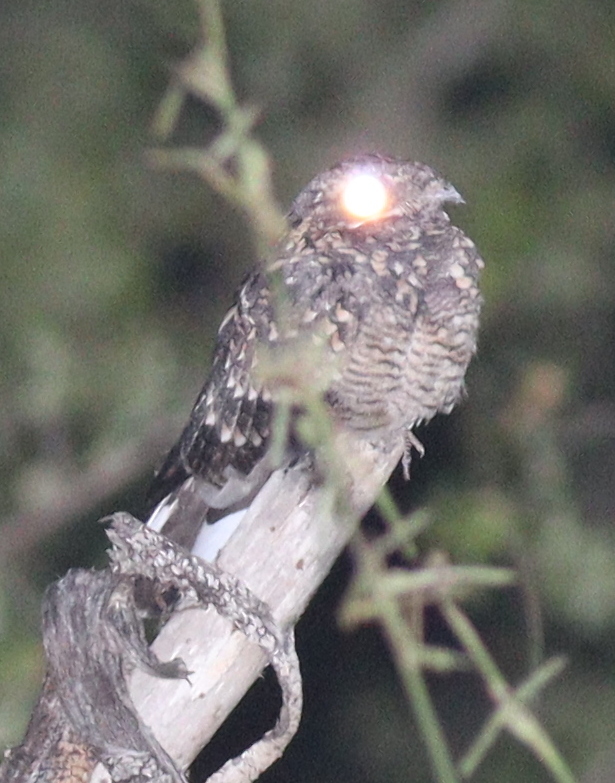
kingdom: Animalia
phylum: Chordata
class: Aves
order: Caprimulgiformes
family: Caprimulgidae
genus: Caprimulgus
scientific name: Caprimulgus fraenatus
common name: Sombre nightjar
